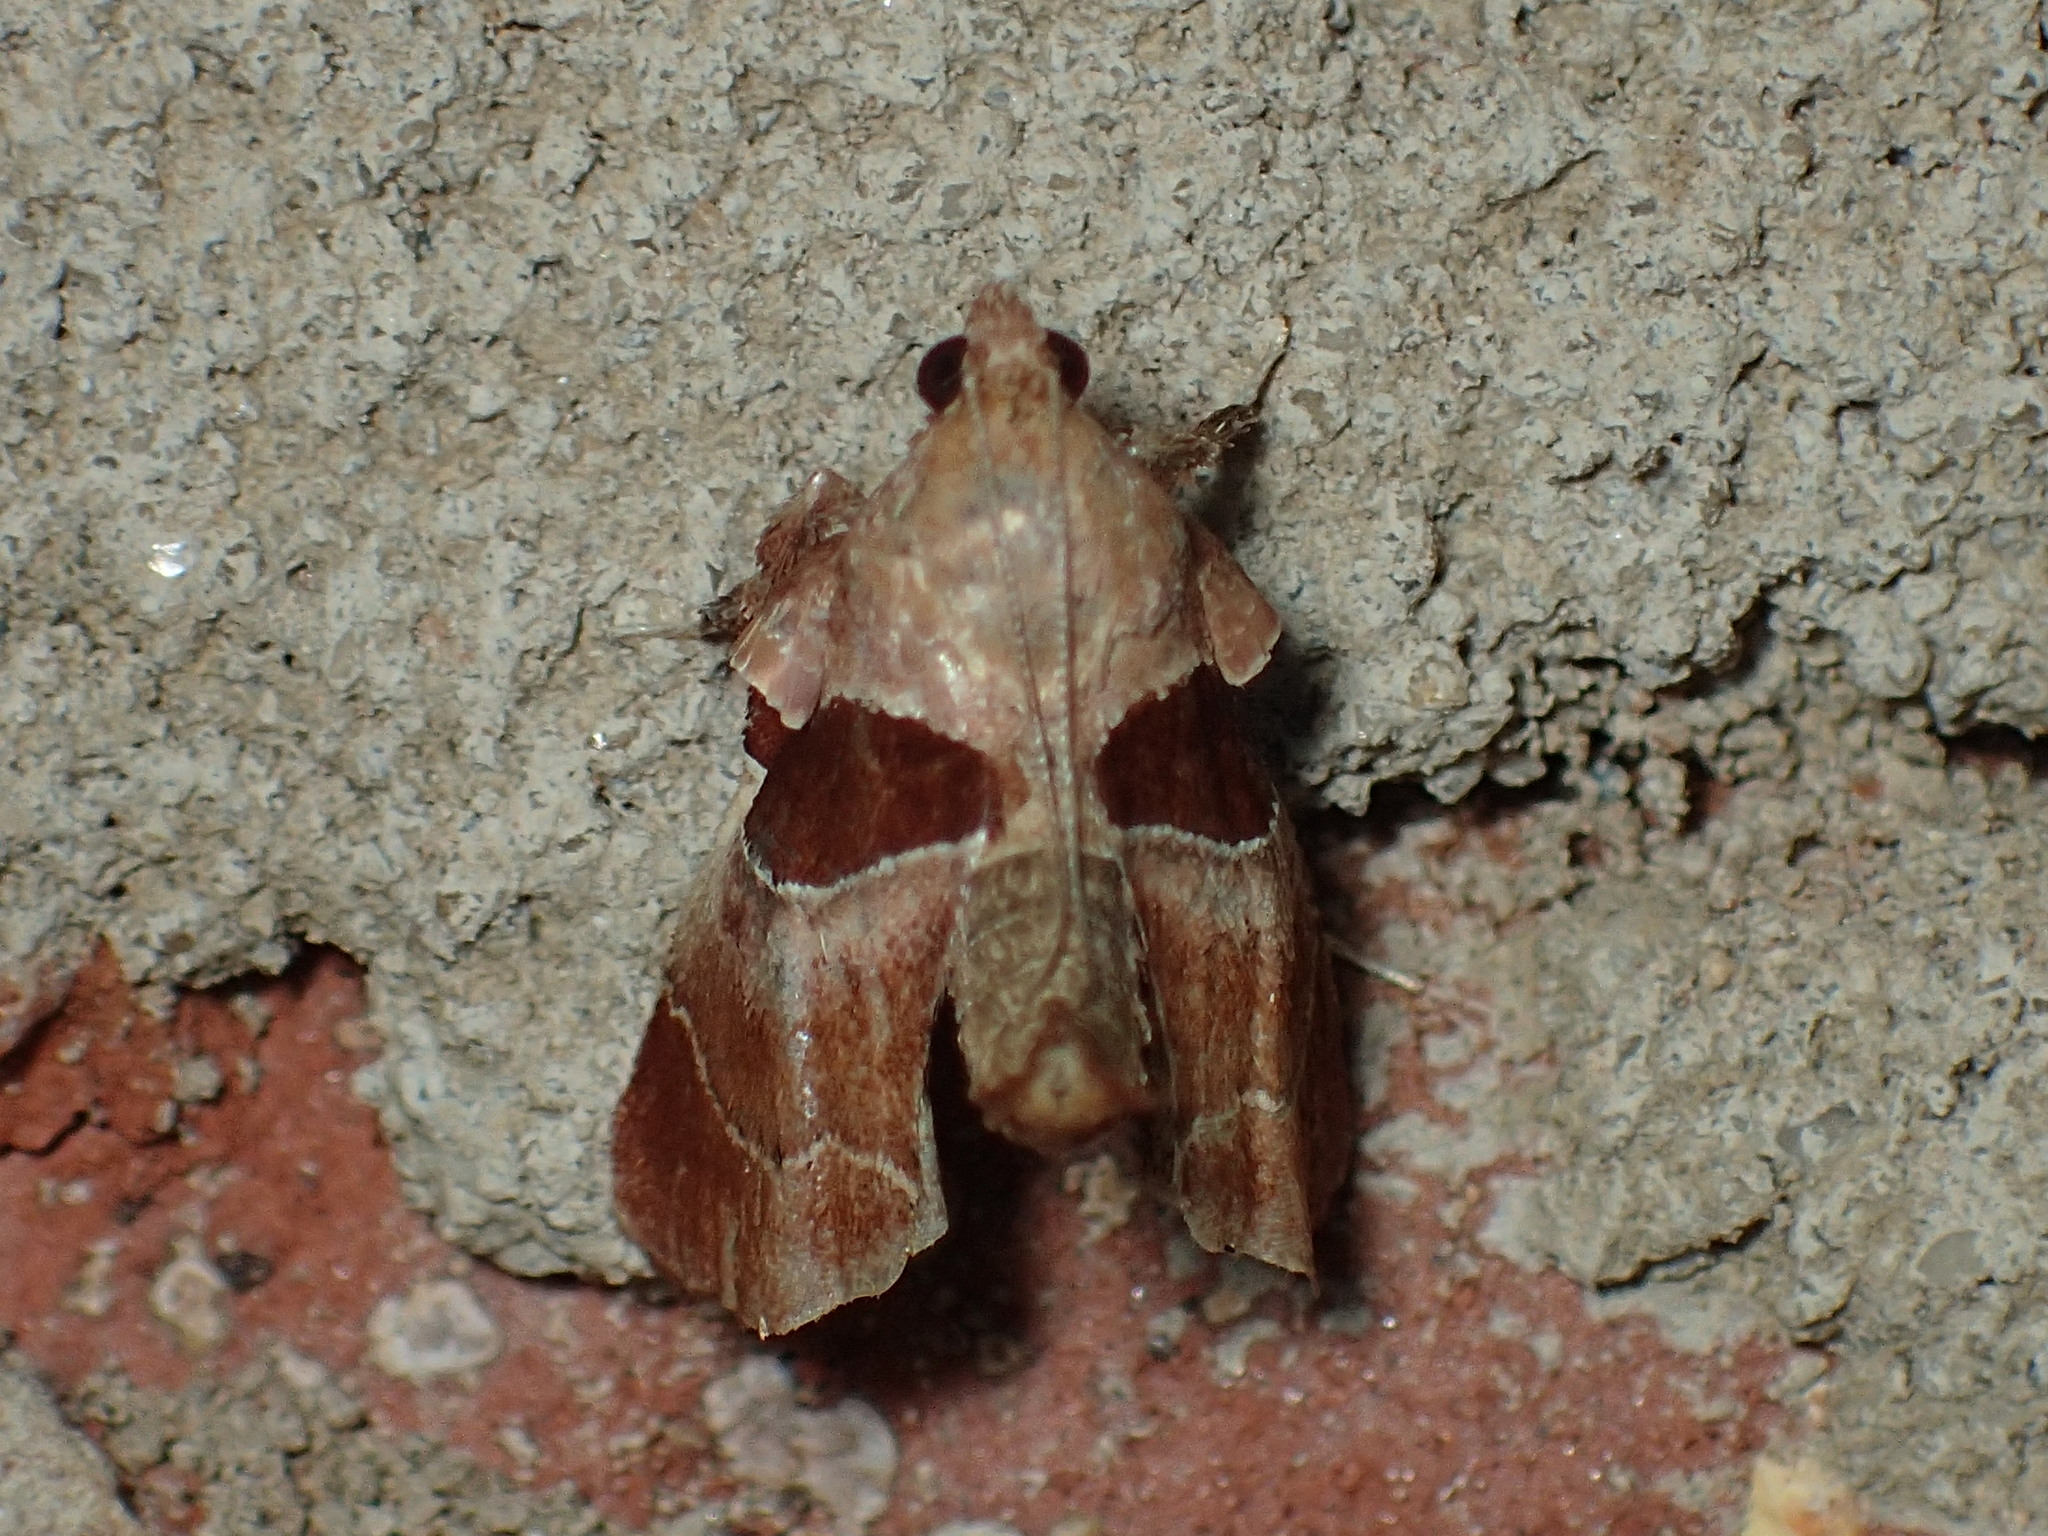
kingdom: Animalia
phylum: Arthropoda
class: Insecta
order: Lepidoptera
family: Pyralidae
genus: Tosale
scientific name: Tosale oviplagalis
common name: Dimorphic tosale moth
